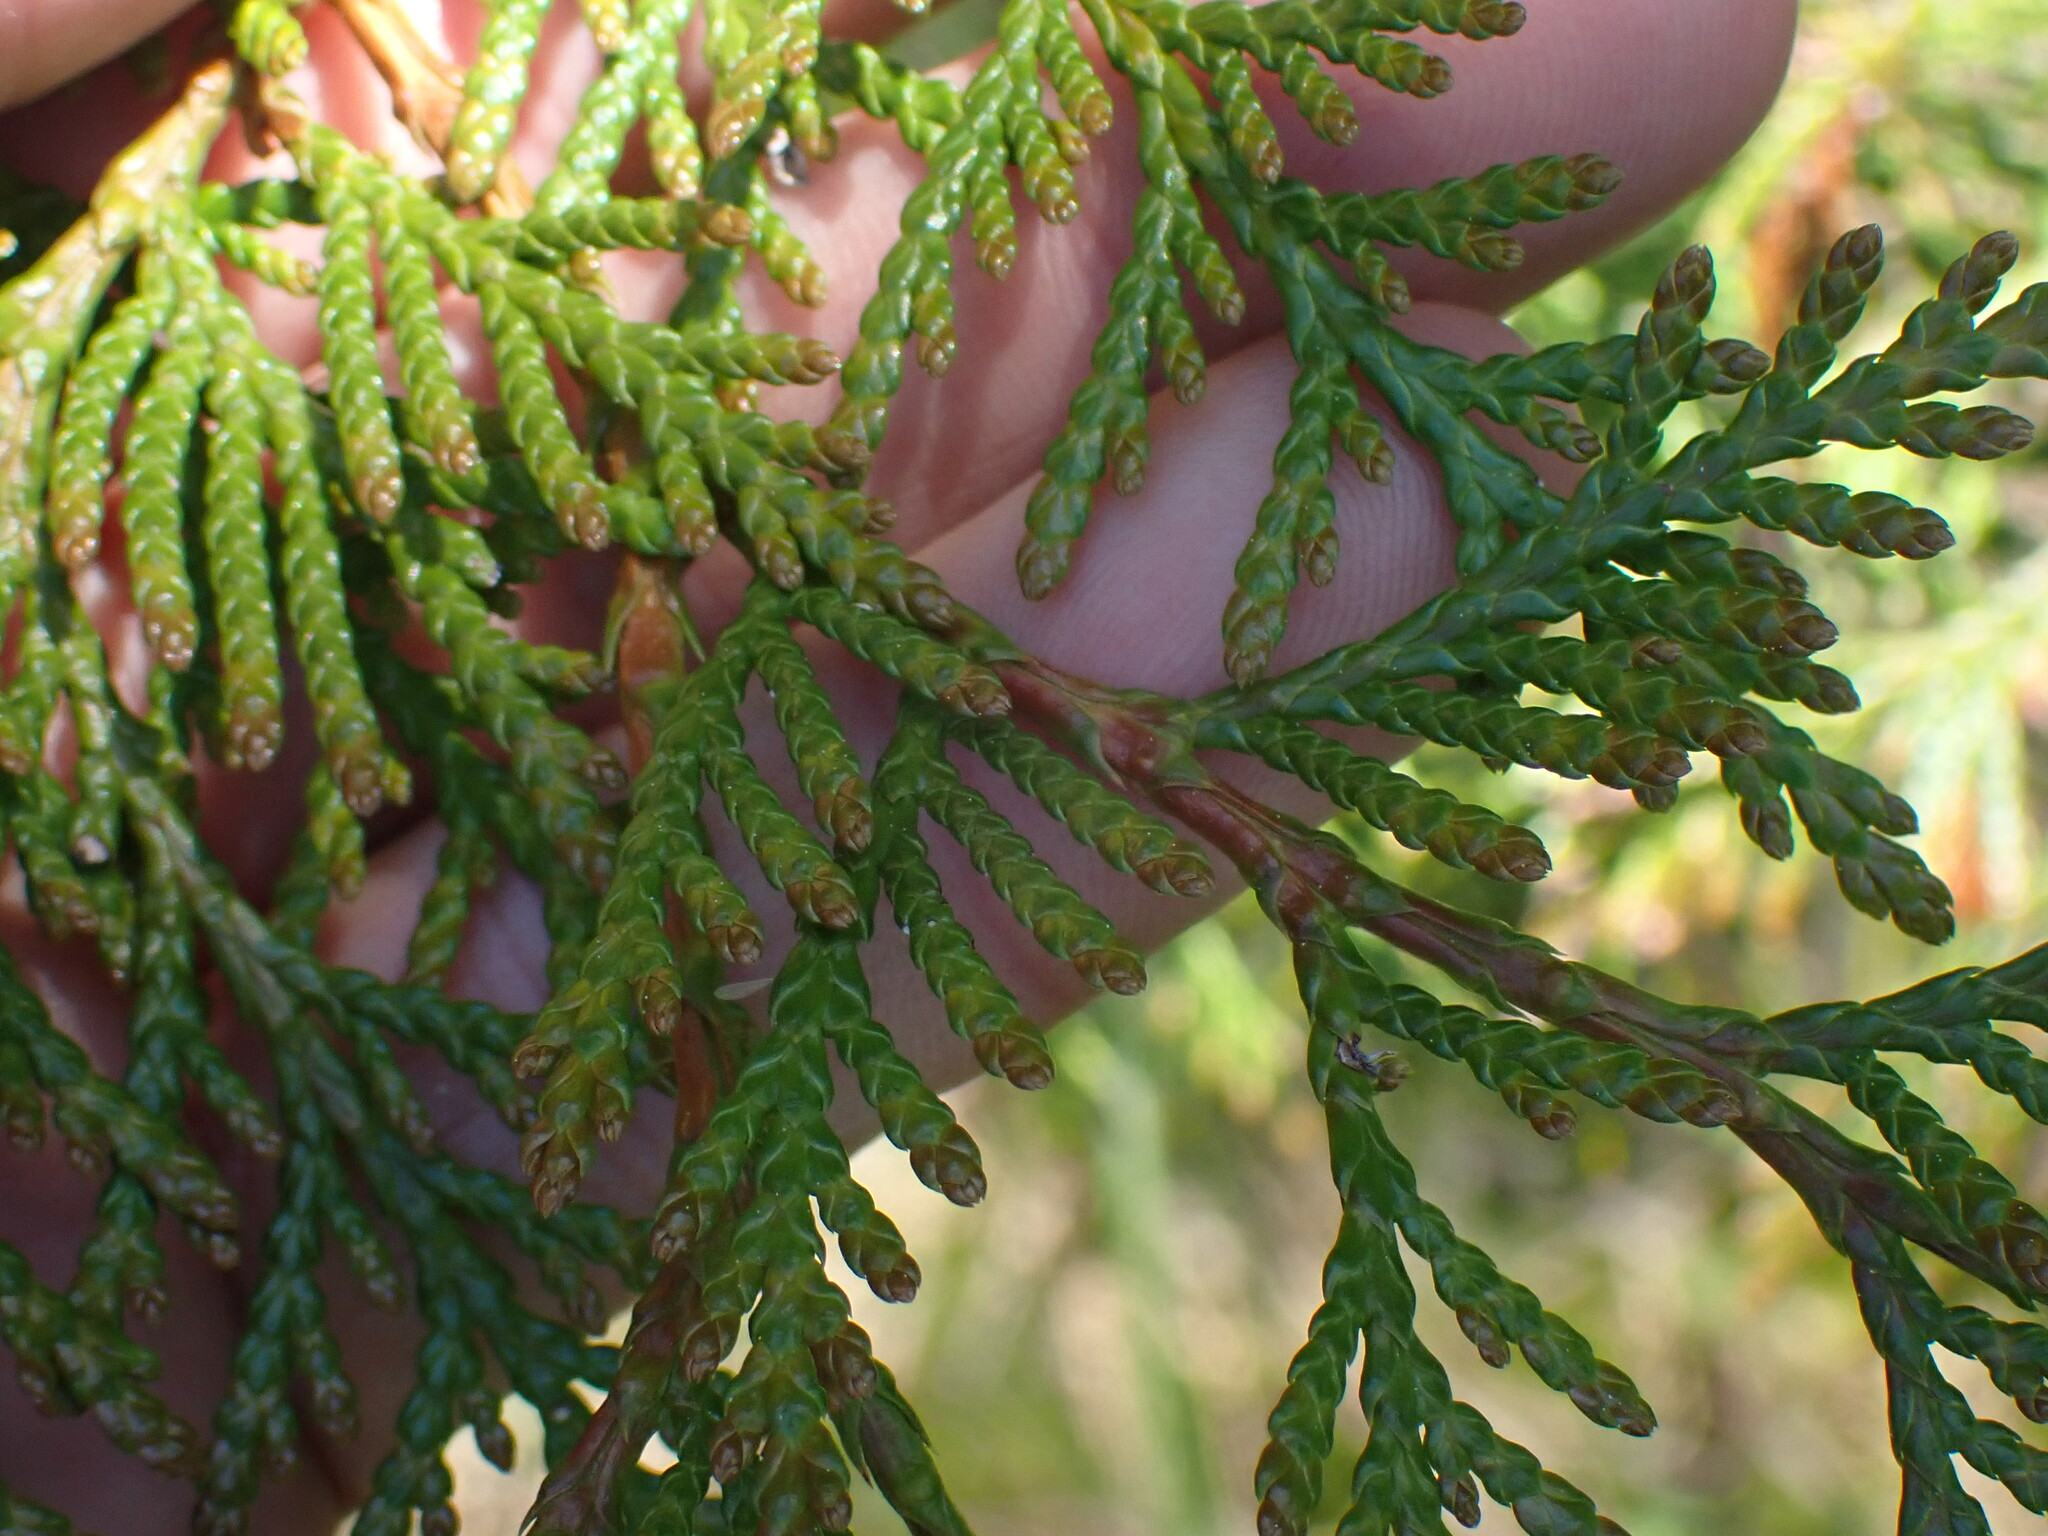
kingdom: Plantae
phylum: Tracheophyta
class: Pinopsida
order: Pinales
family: Cupressaceae
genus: Thuja
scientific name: Thuja plicata
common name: Western red-cedar
